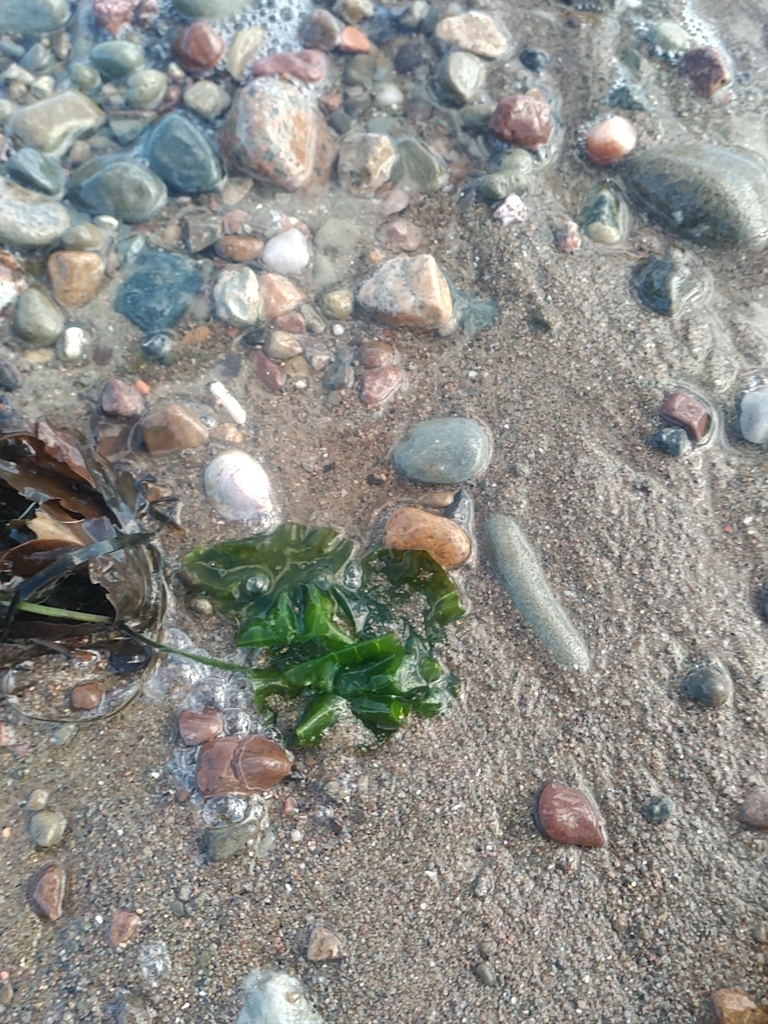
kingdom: Plantae
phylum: Chlorophyta
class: Ulvophyceae
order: Ulvales
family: Ulvaceae
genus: Ulva
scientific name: Ulva lactuca
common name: Sea lettuce
